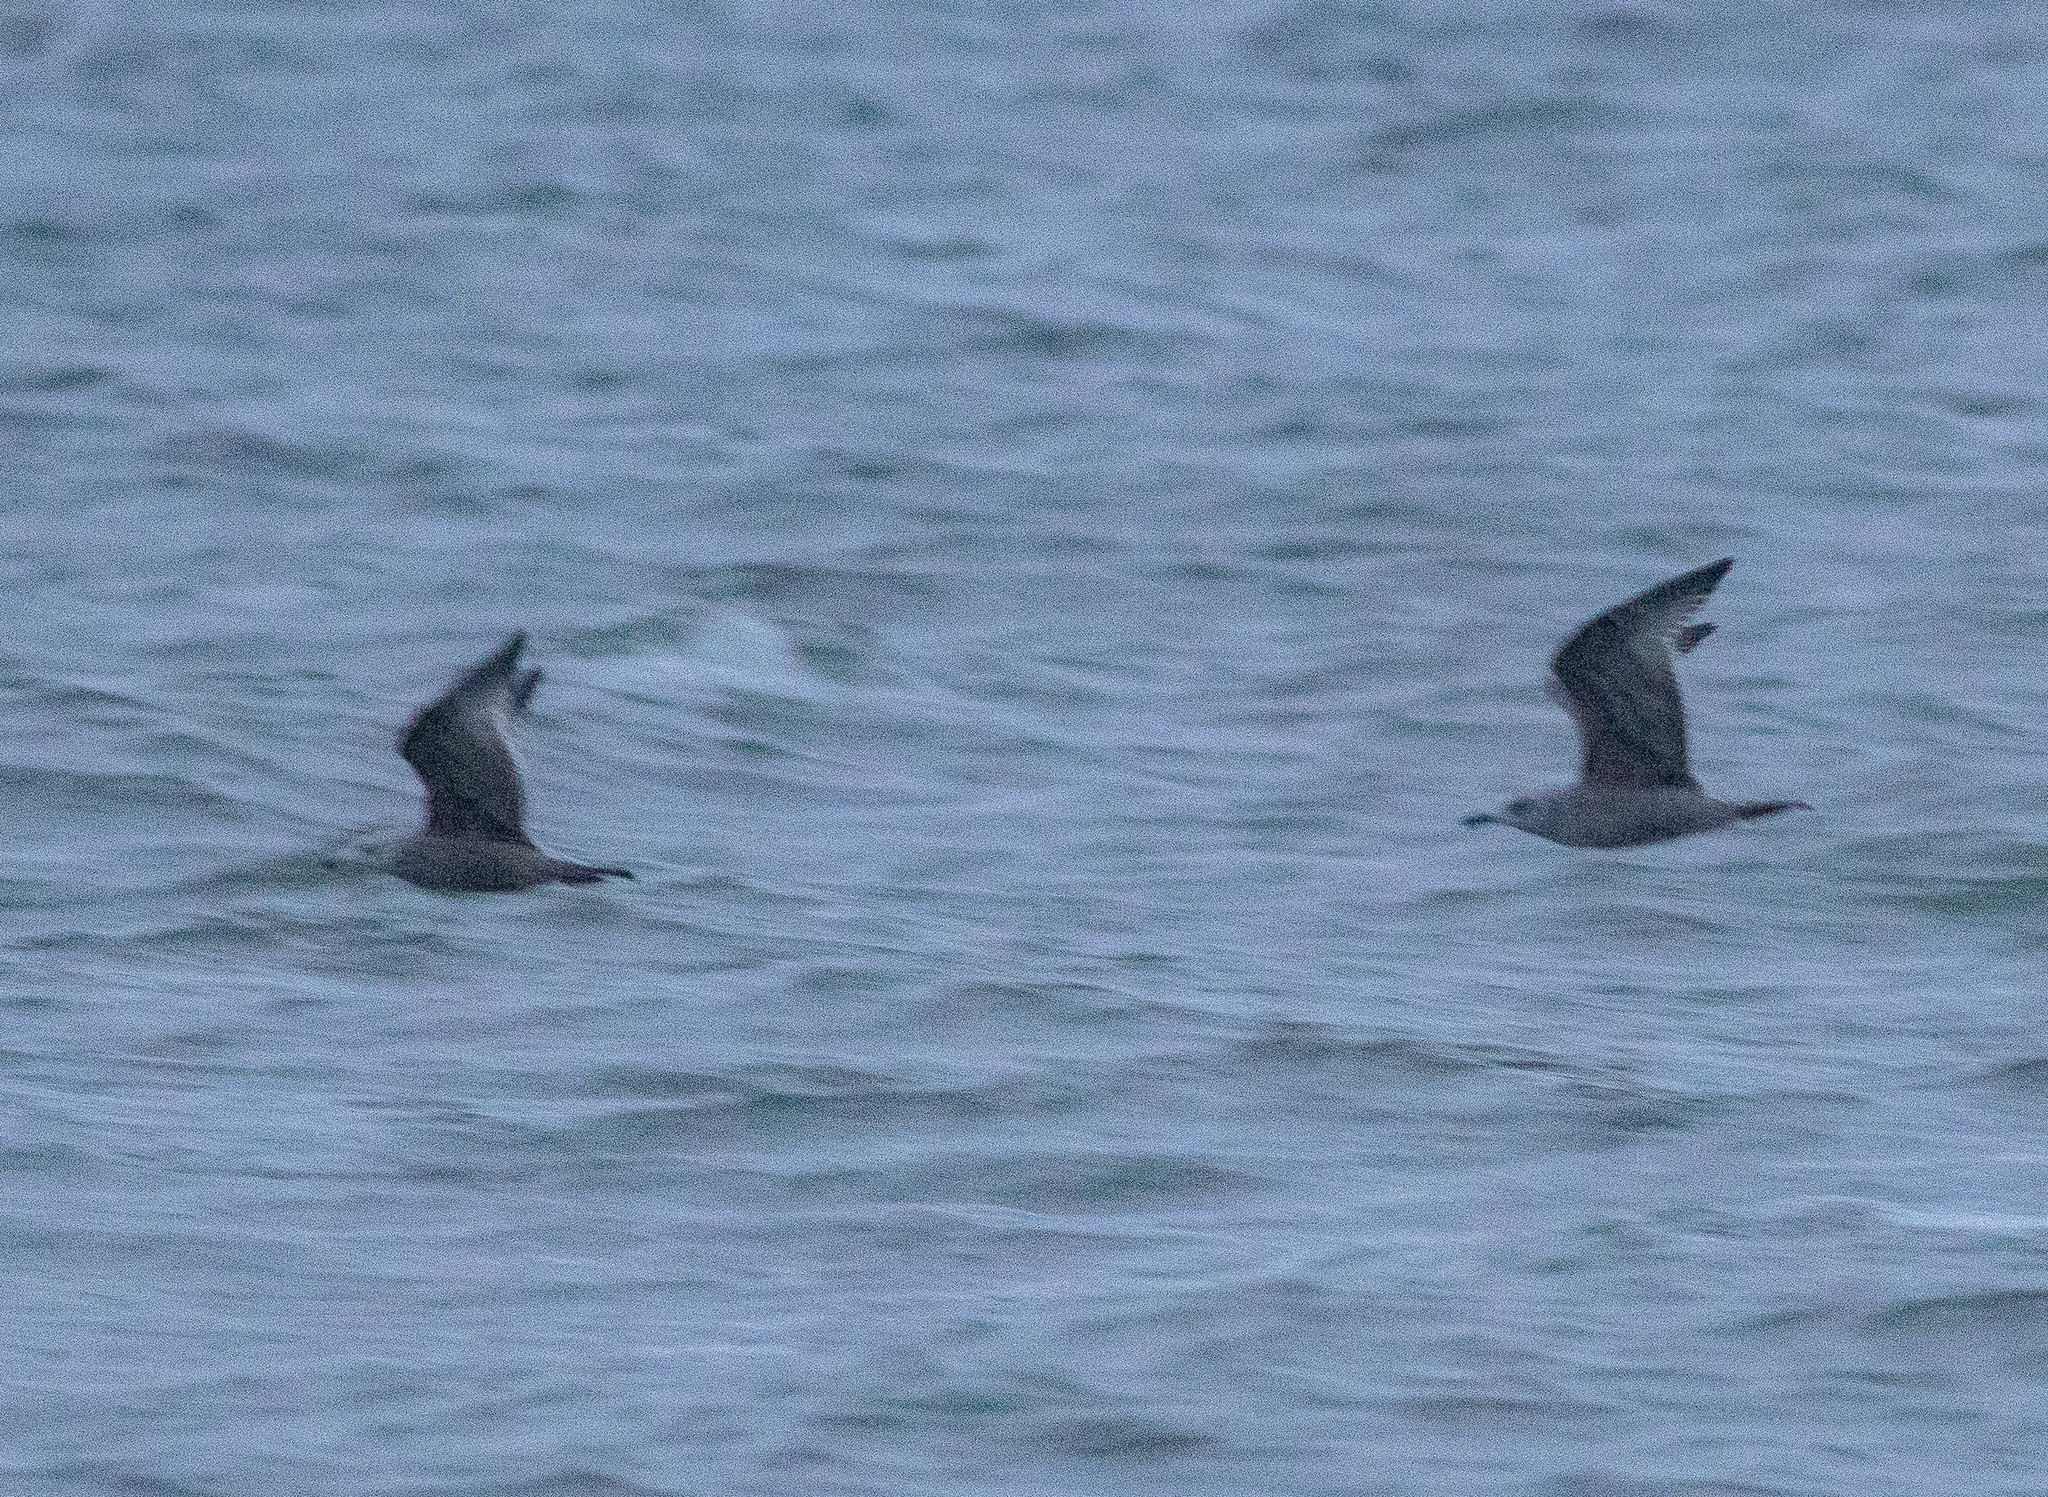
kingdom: Animalia
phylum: Chordata
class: Aves
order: Charadriiformes
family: Laridae
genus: Larus
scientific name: Larus delawarensis
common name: Ring-billed gull
